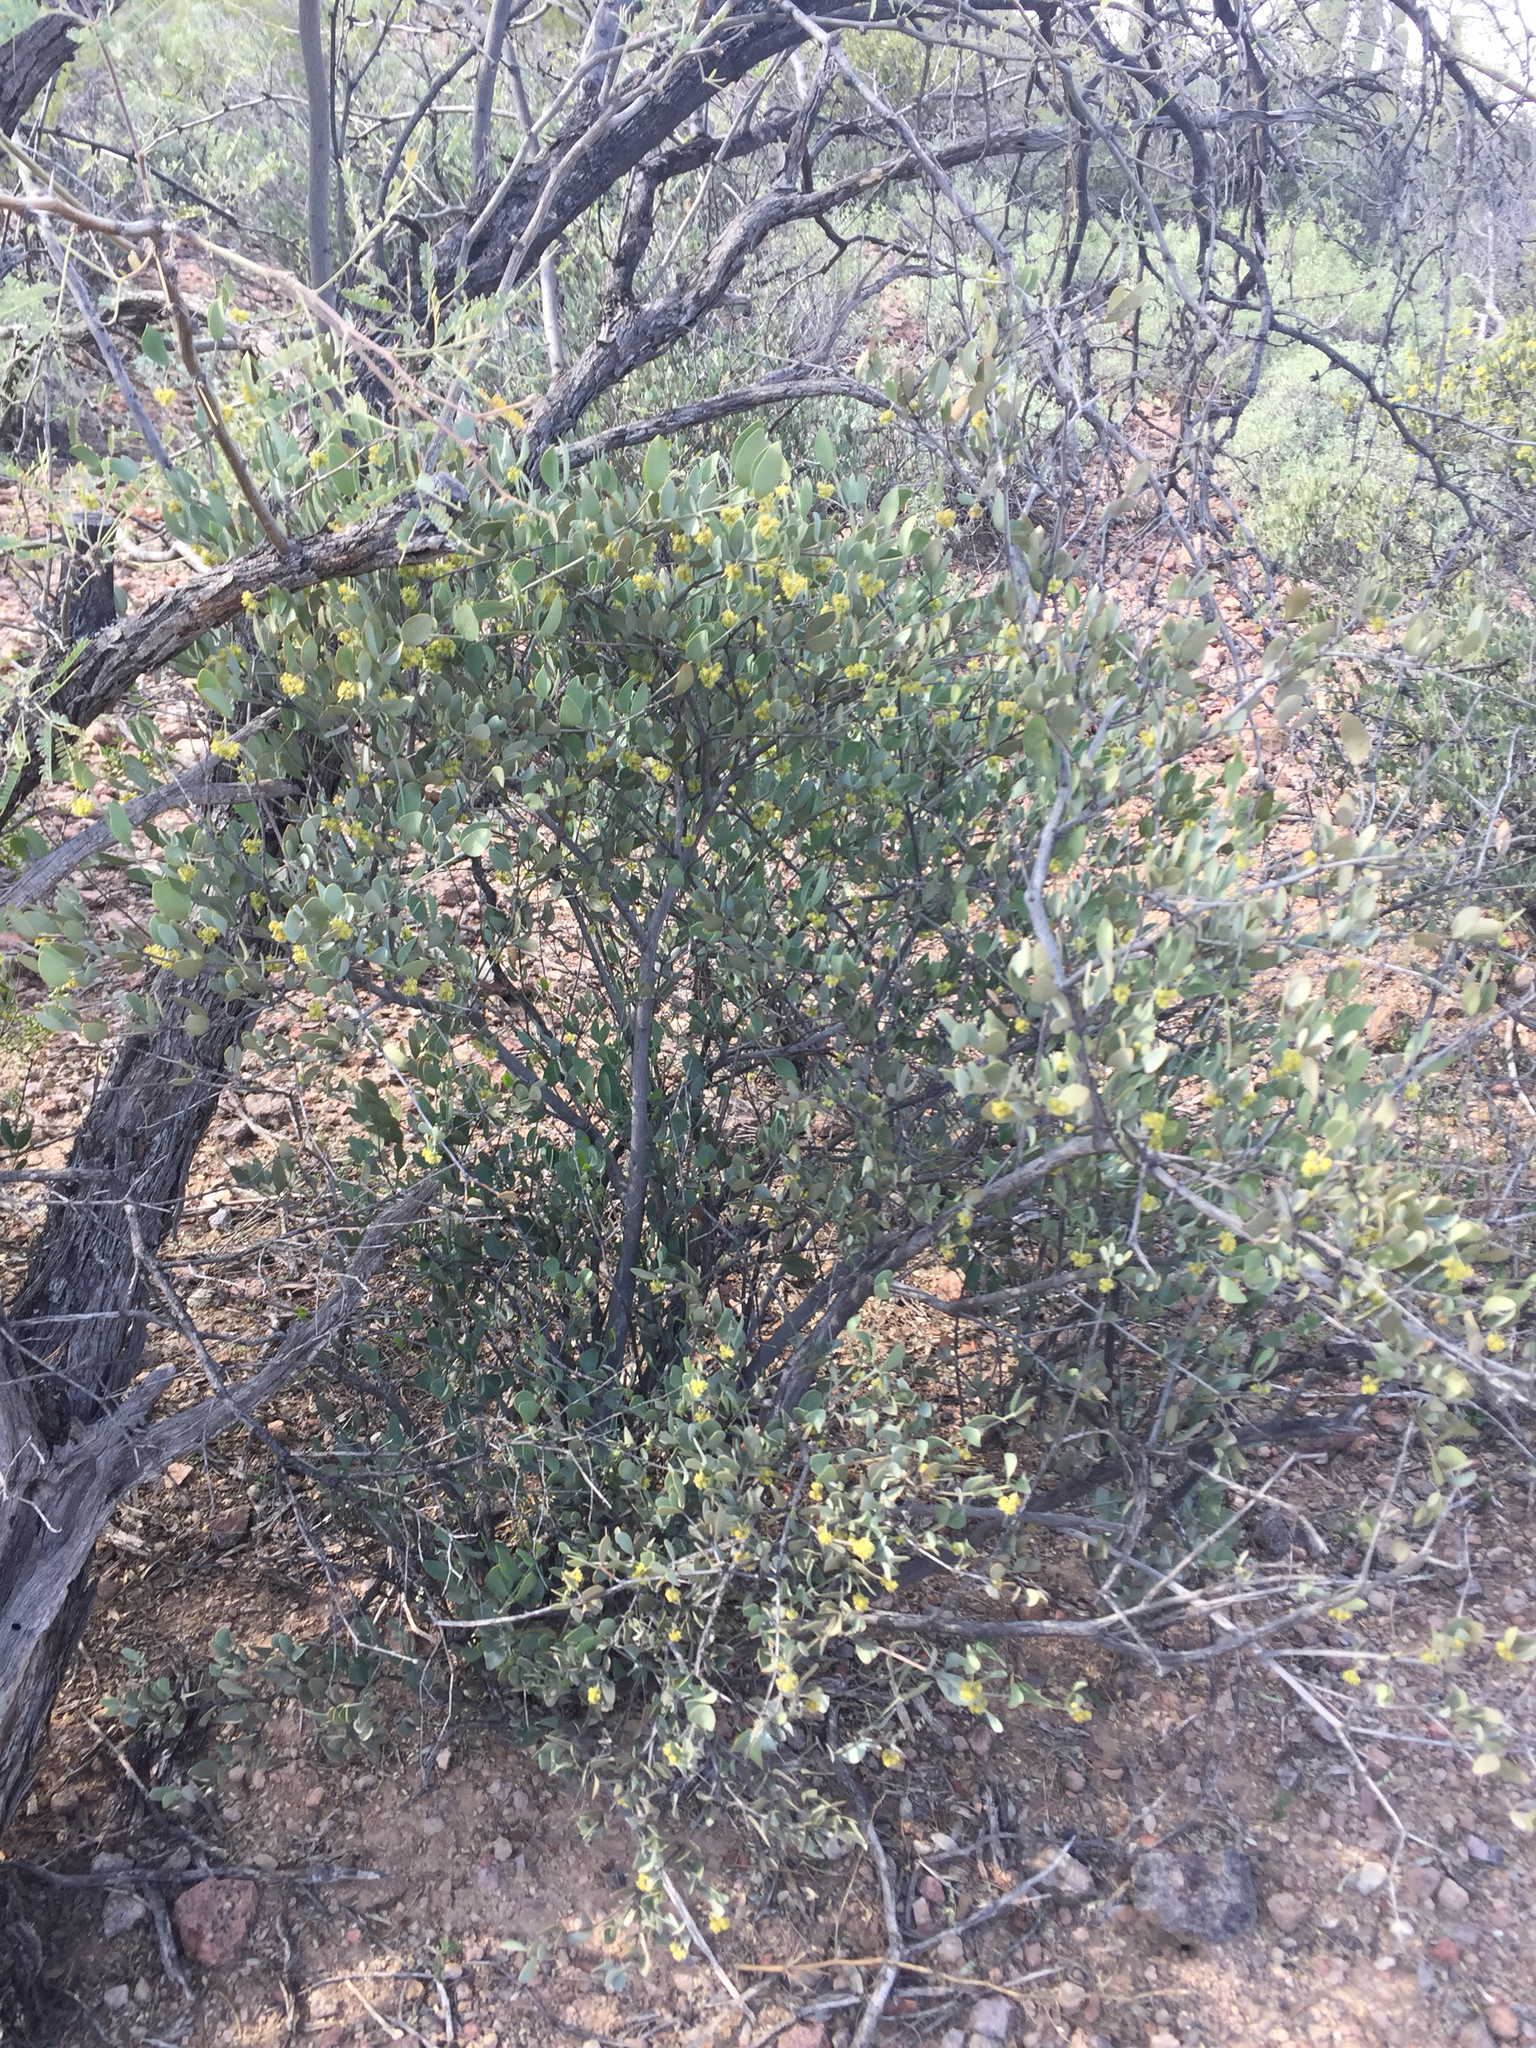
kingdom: Plantae
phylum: Tracheophyta
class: Magnoliopsida
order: Caryophyllales
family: Simmondsiaceae
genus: Simmondsia
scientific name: Simmondsia chinensis
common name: Jojoba
